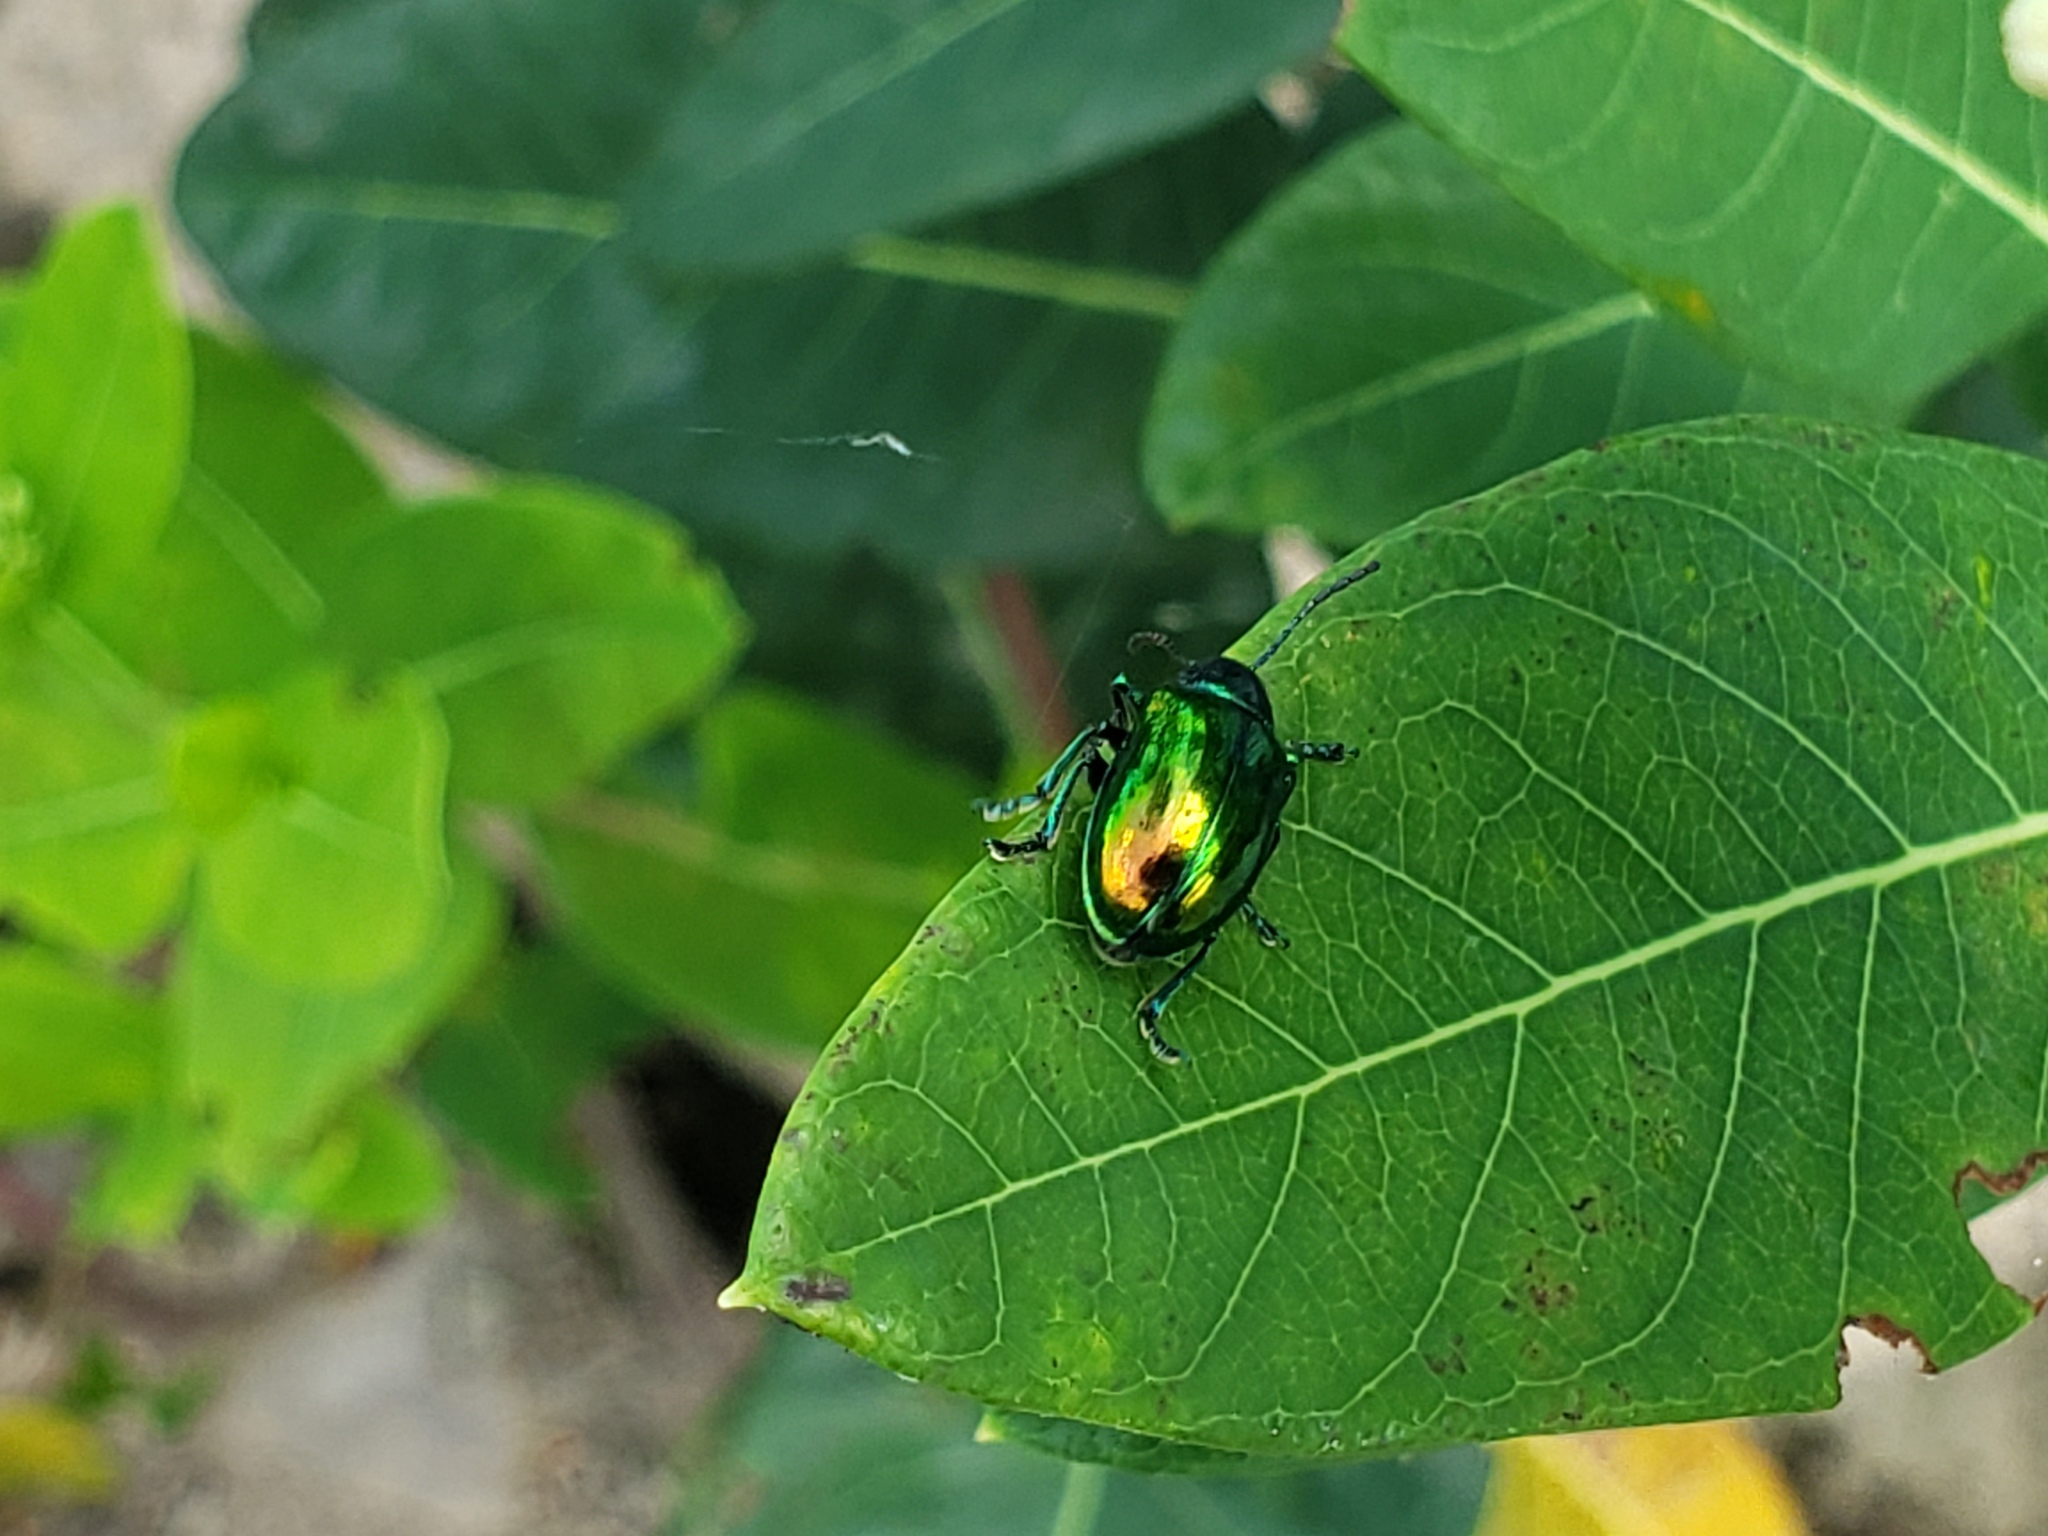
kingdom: Animalia
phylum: Arthropoda
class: Insecta
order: Coleoptera
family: Chrysomelidae
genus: Chrysochus
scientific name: Chrysochus auratus
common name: Dogbane leaf beetle
